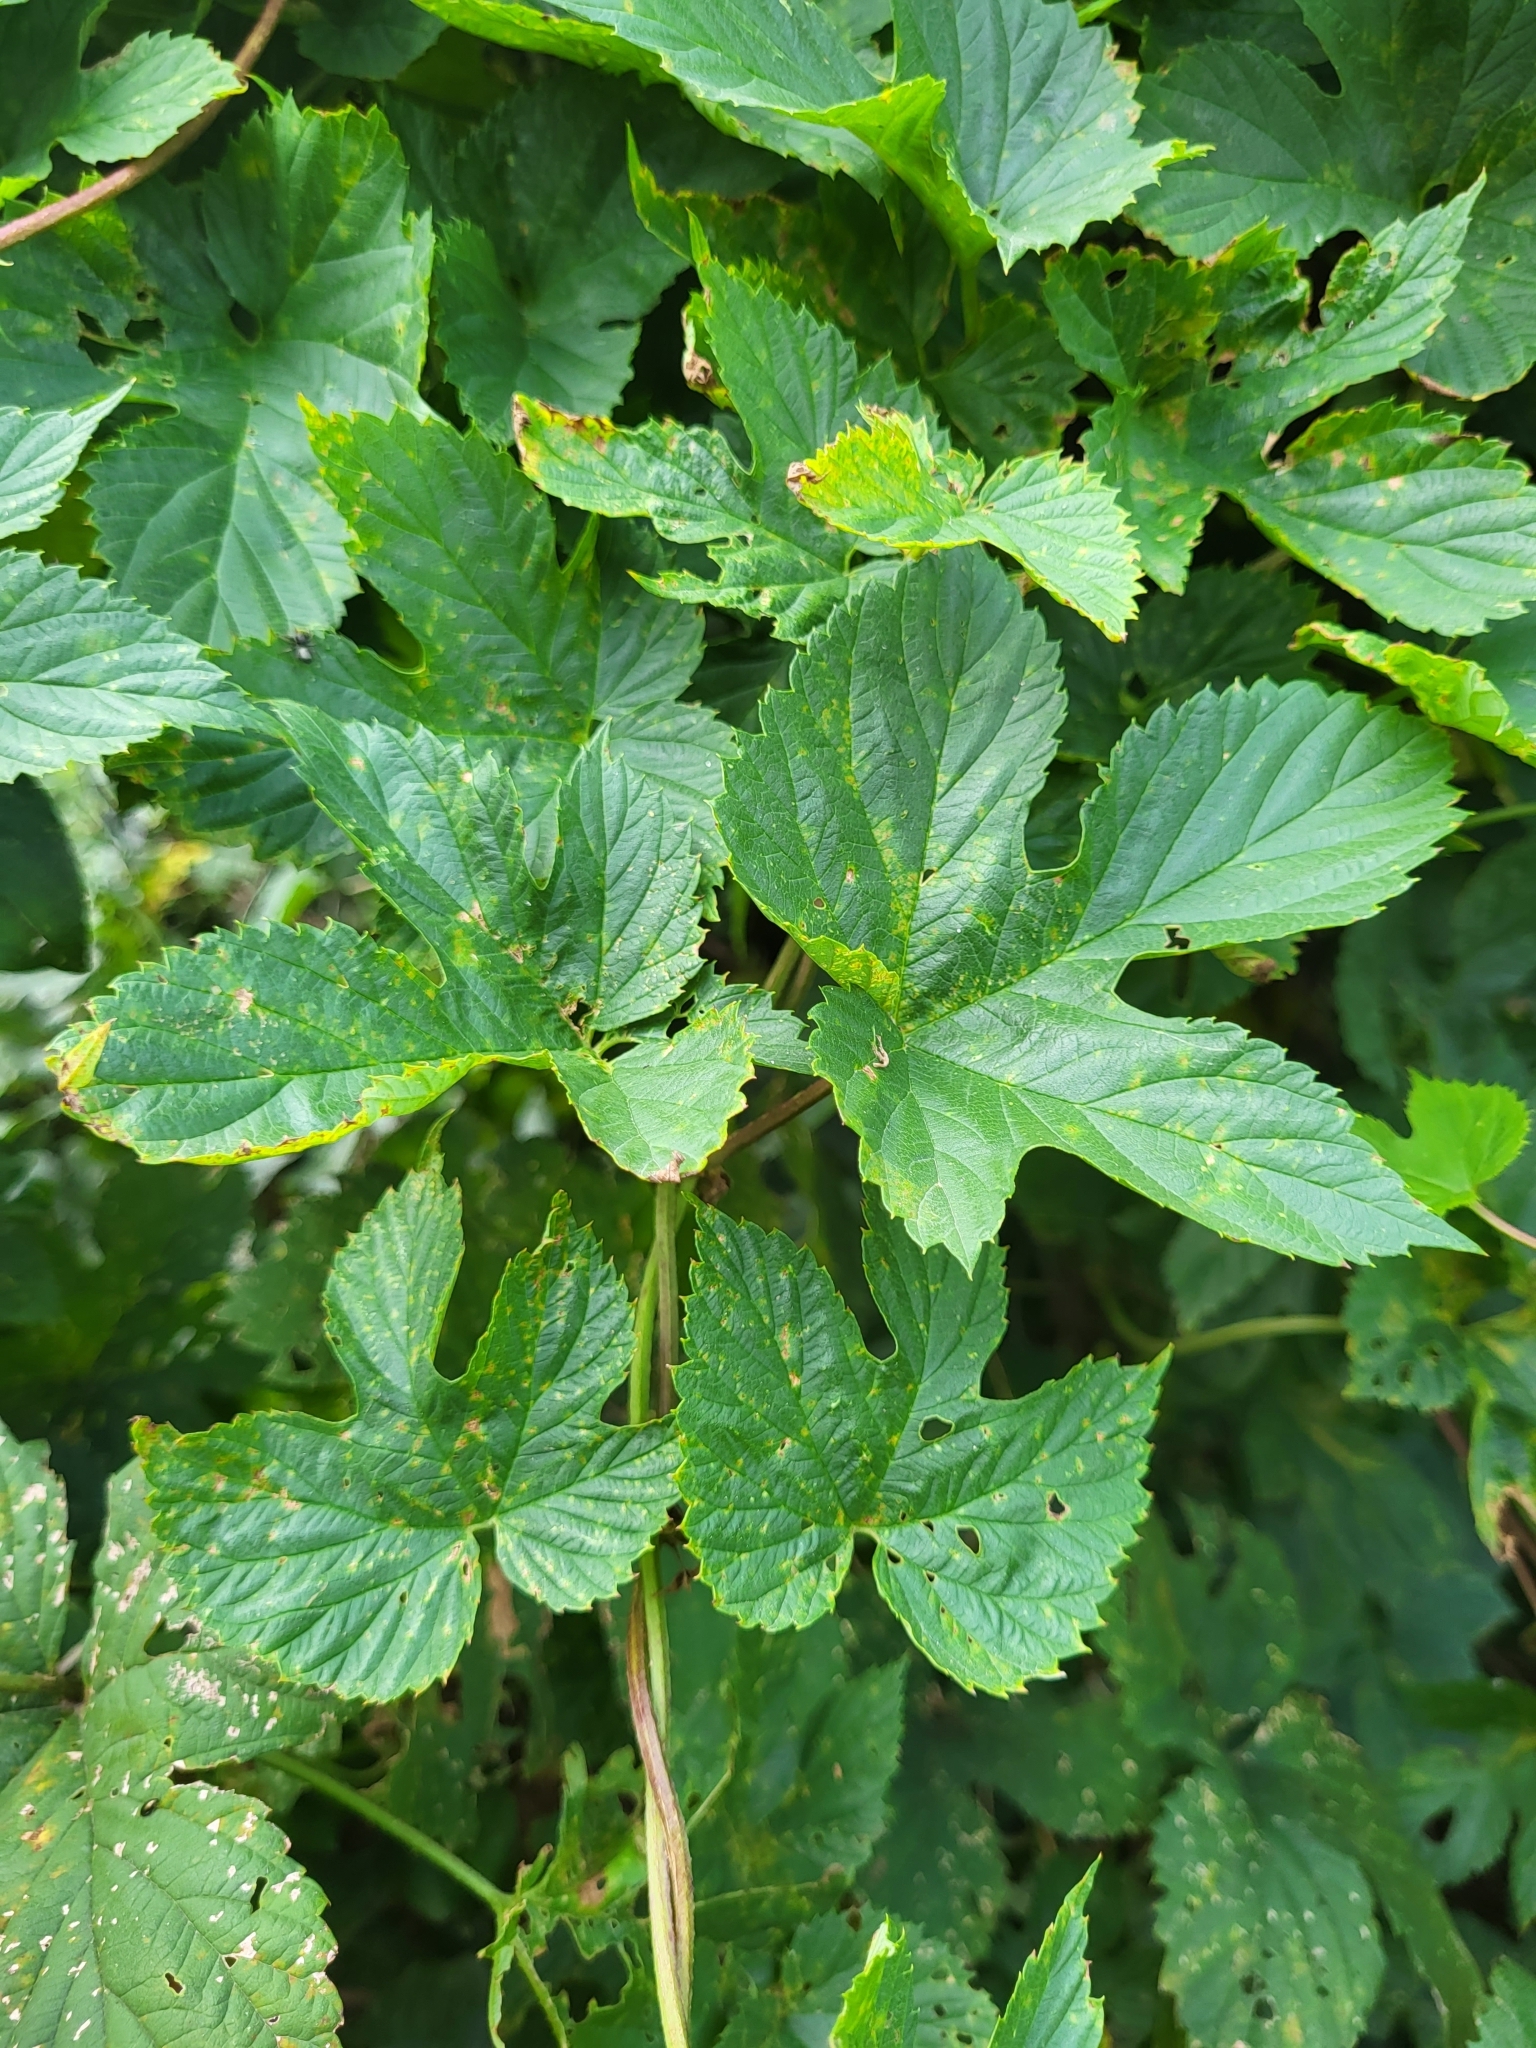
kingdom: Plantae
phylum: Tracheophyta
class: Magnoliopsida
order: Rosales
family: Cannabaceae
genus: Humulus
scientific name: Humulus lupulus
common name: Hop
